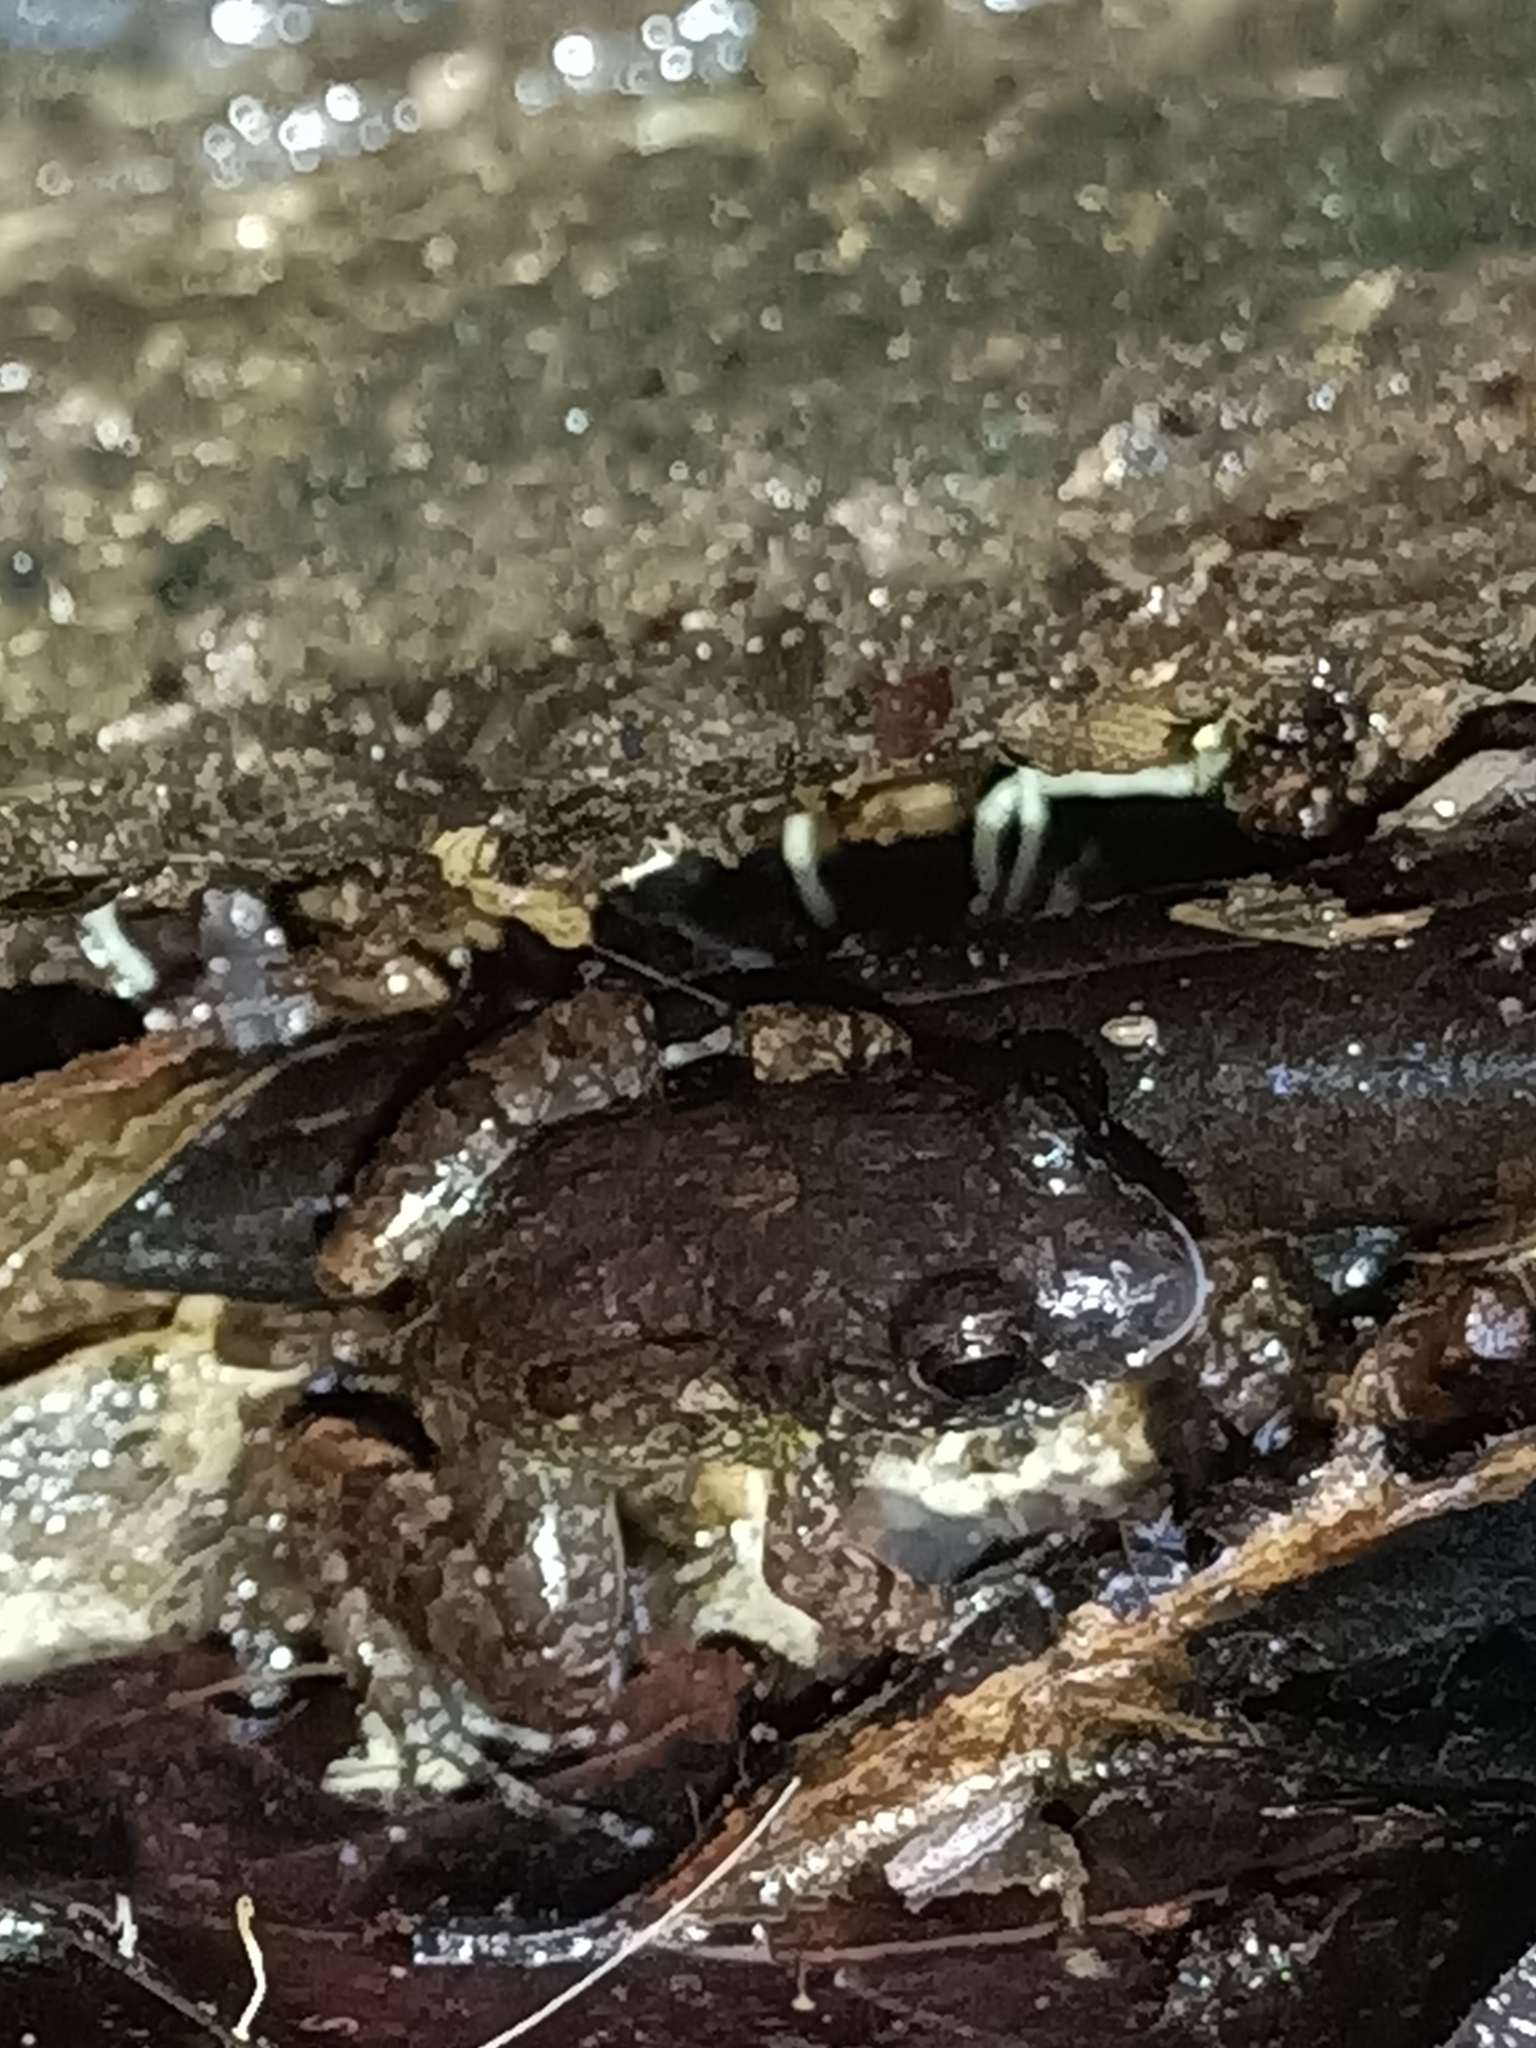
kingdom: Animalia
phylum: Chordata
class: Amphibia
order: Anura
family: Leptodactylidae
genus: Adenomera
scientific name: Adenomera andreae
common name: Lowland tropical bullfrog
